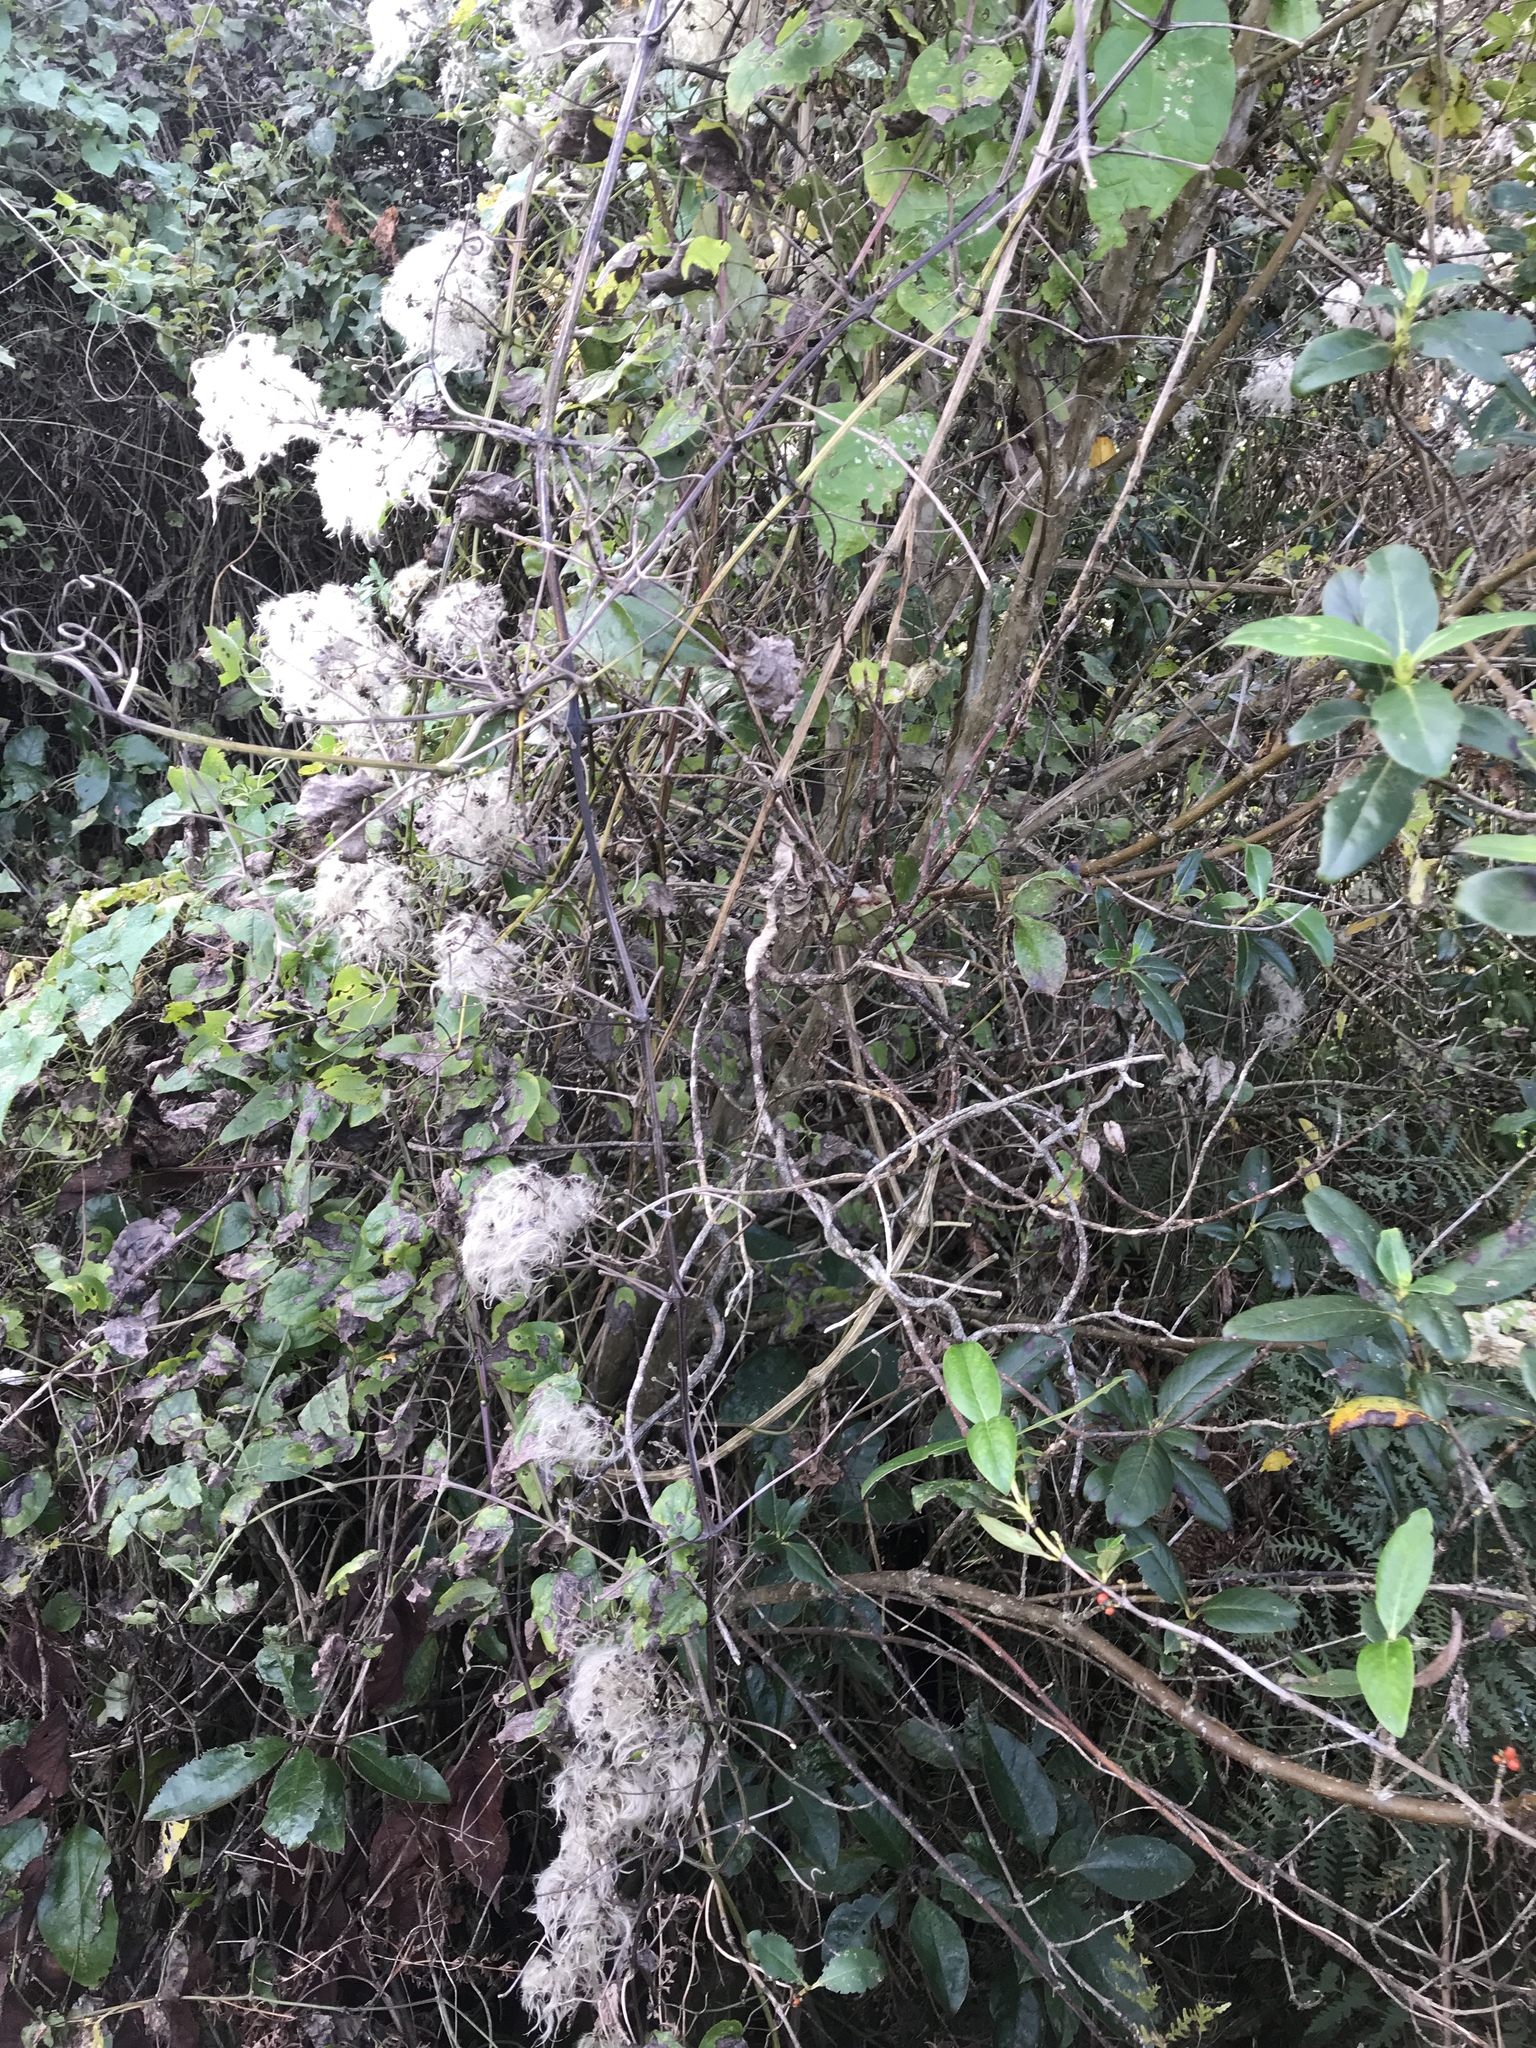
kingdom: Plantae
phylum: Tracheophyta
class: Magnoliopsida
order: Ranunculales
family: Ranunculaceae
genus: Clematis
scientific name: Clematis vitalba
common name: Evergreen clematis
